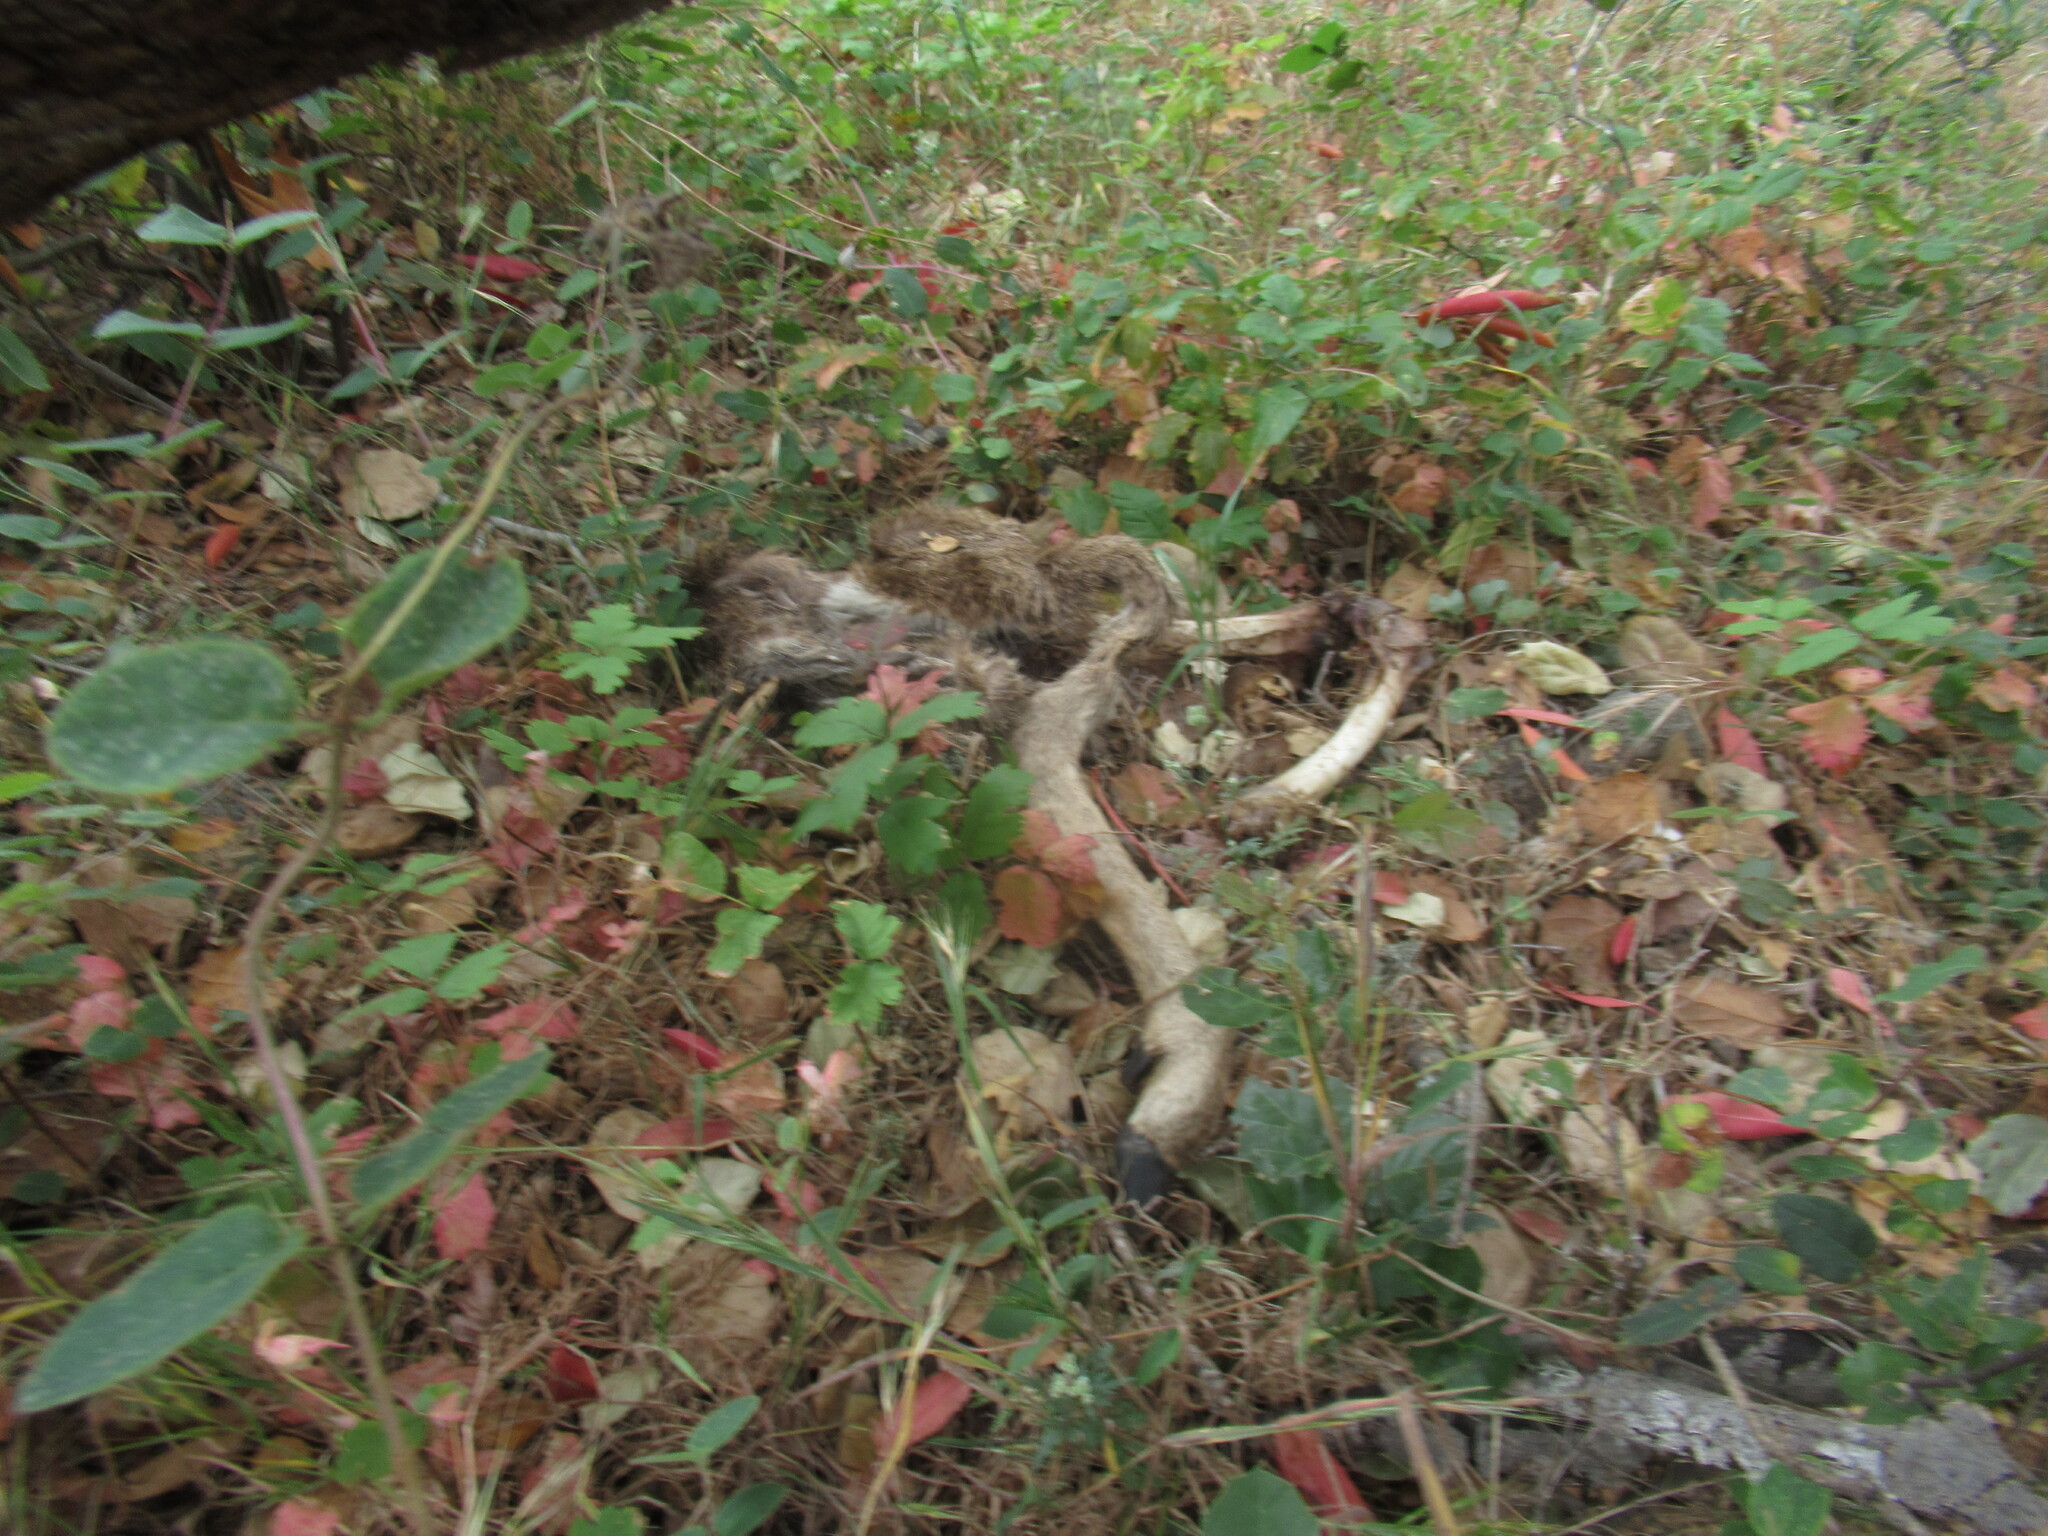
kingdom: Animalia
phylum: Chordata
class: Mammalia
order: Artiodactyla
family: Cervidae
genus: Odocoileus
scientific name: Odocoileus hemionus
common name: Mule deer
